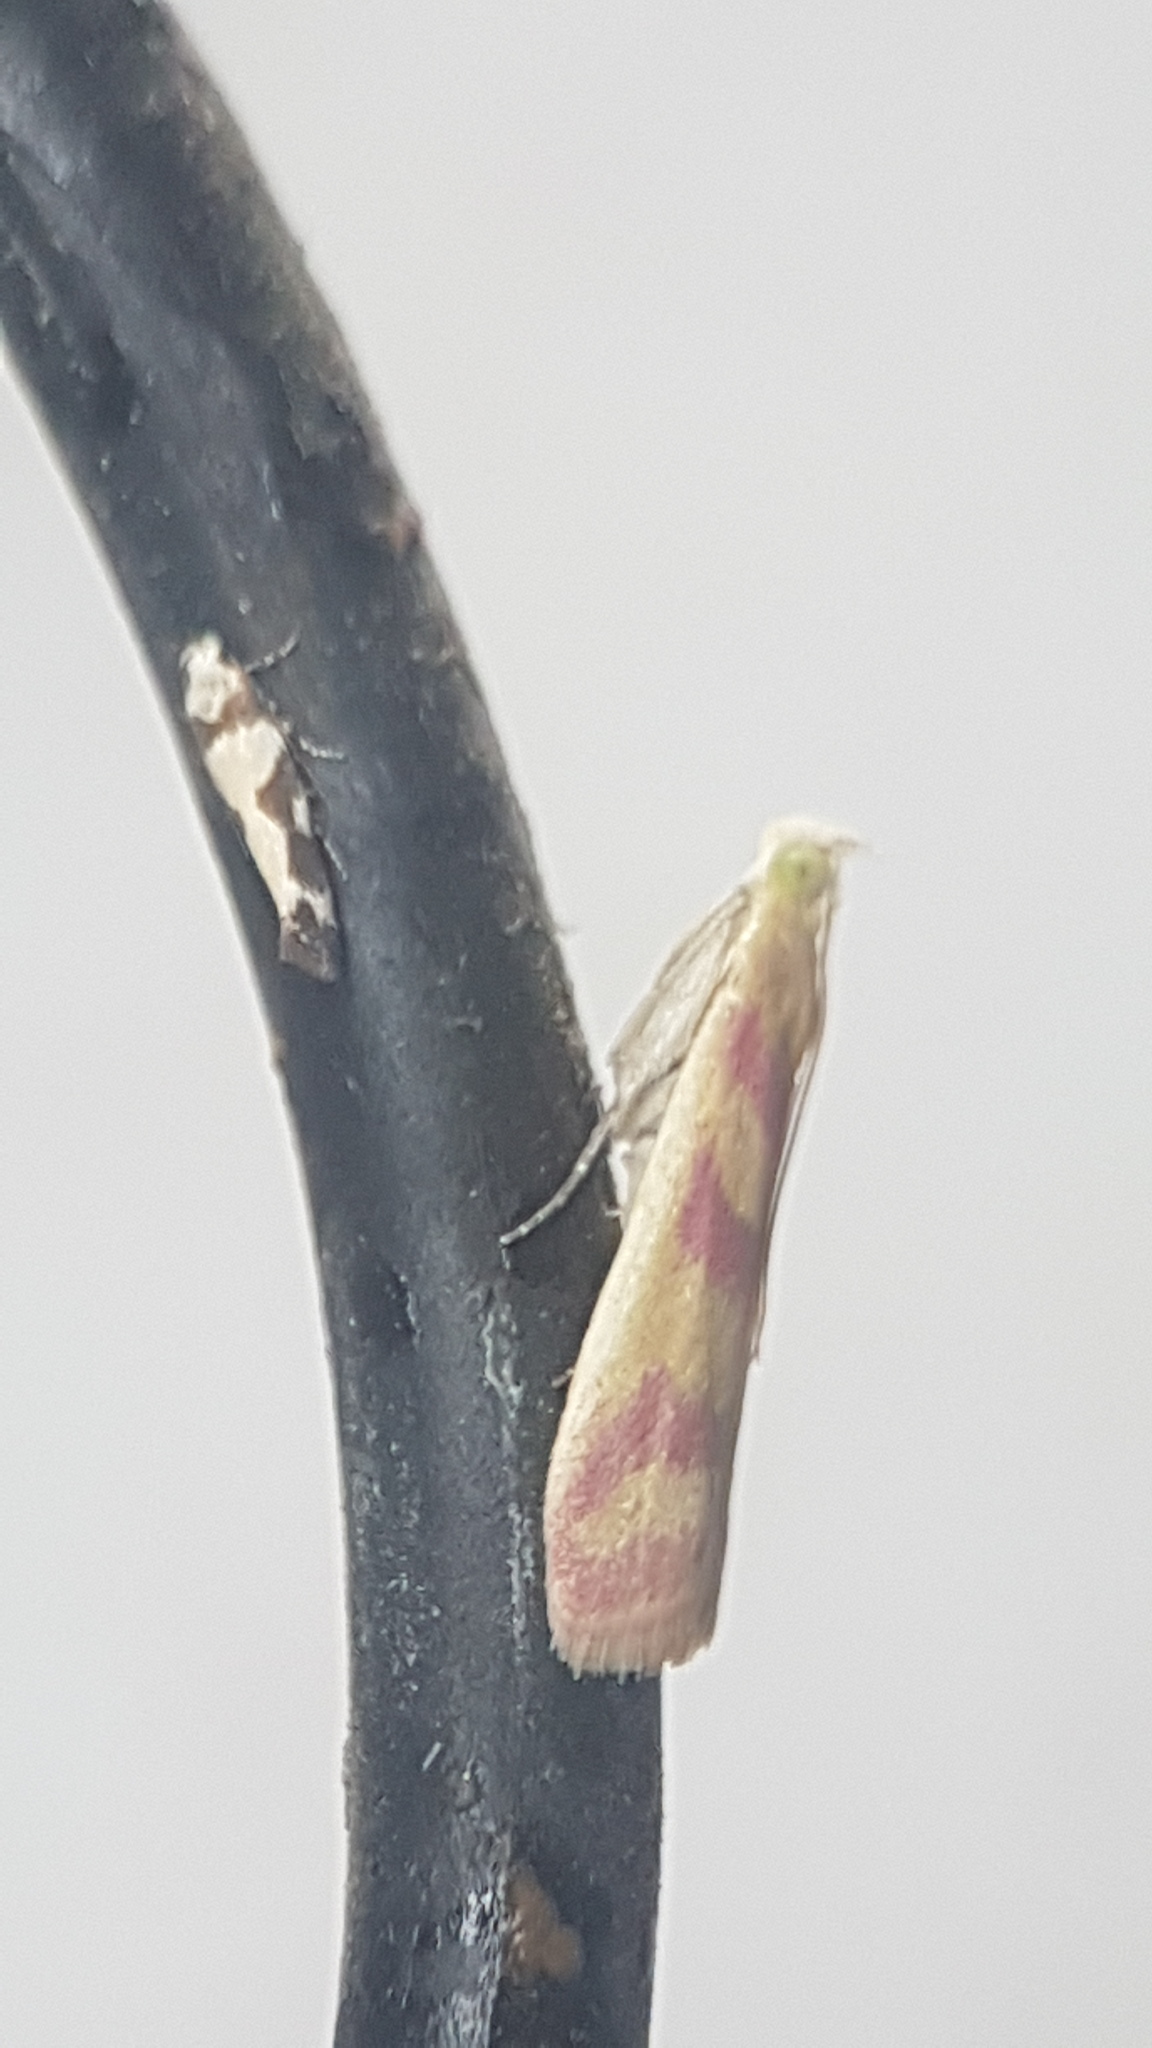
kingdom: Animalia
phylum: Arthropoda
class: Insecta
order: Lepidoptera
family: Pyralidae
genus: Ancylosis
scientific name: Ancylosis hellenica
